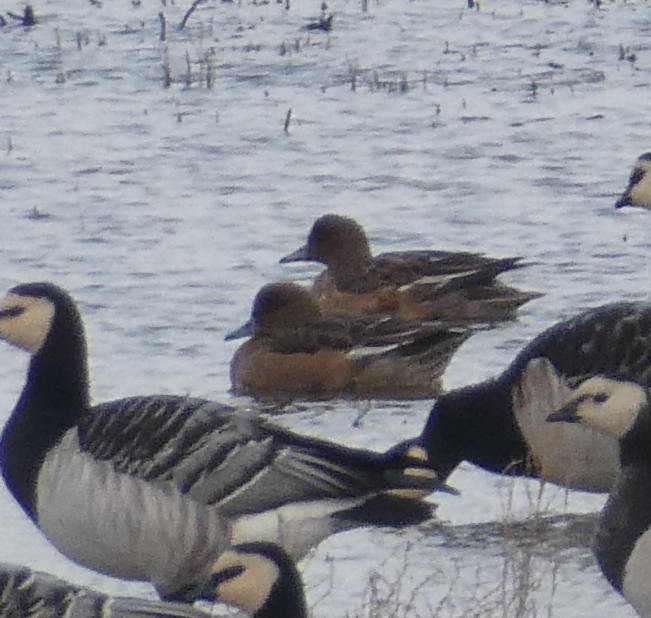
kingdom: Animalia
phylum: Chordata
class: Aves
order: Anseriformes
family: Anatidae
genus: Mareca
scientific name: Mareca penelope
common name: Eurasian wigeon
